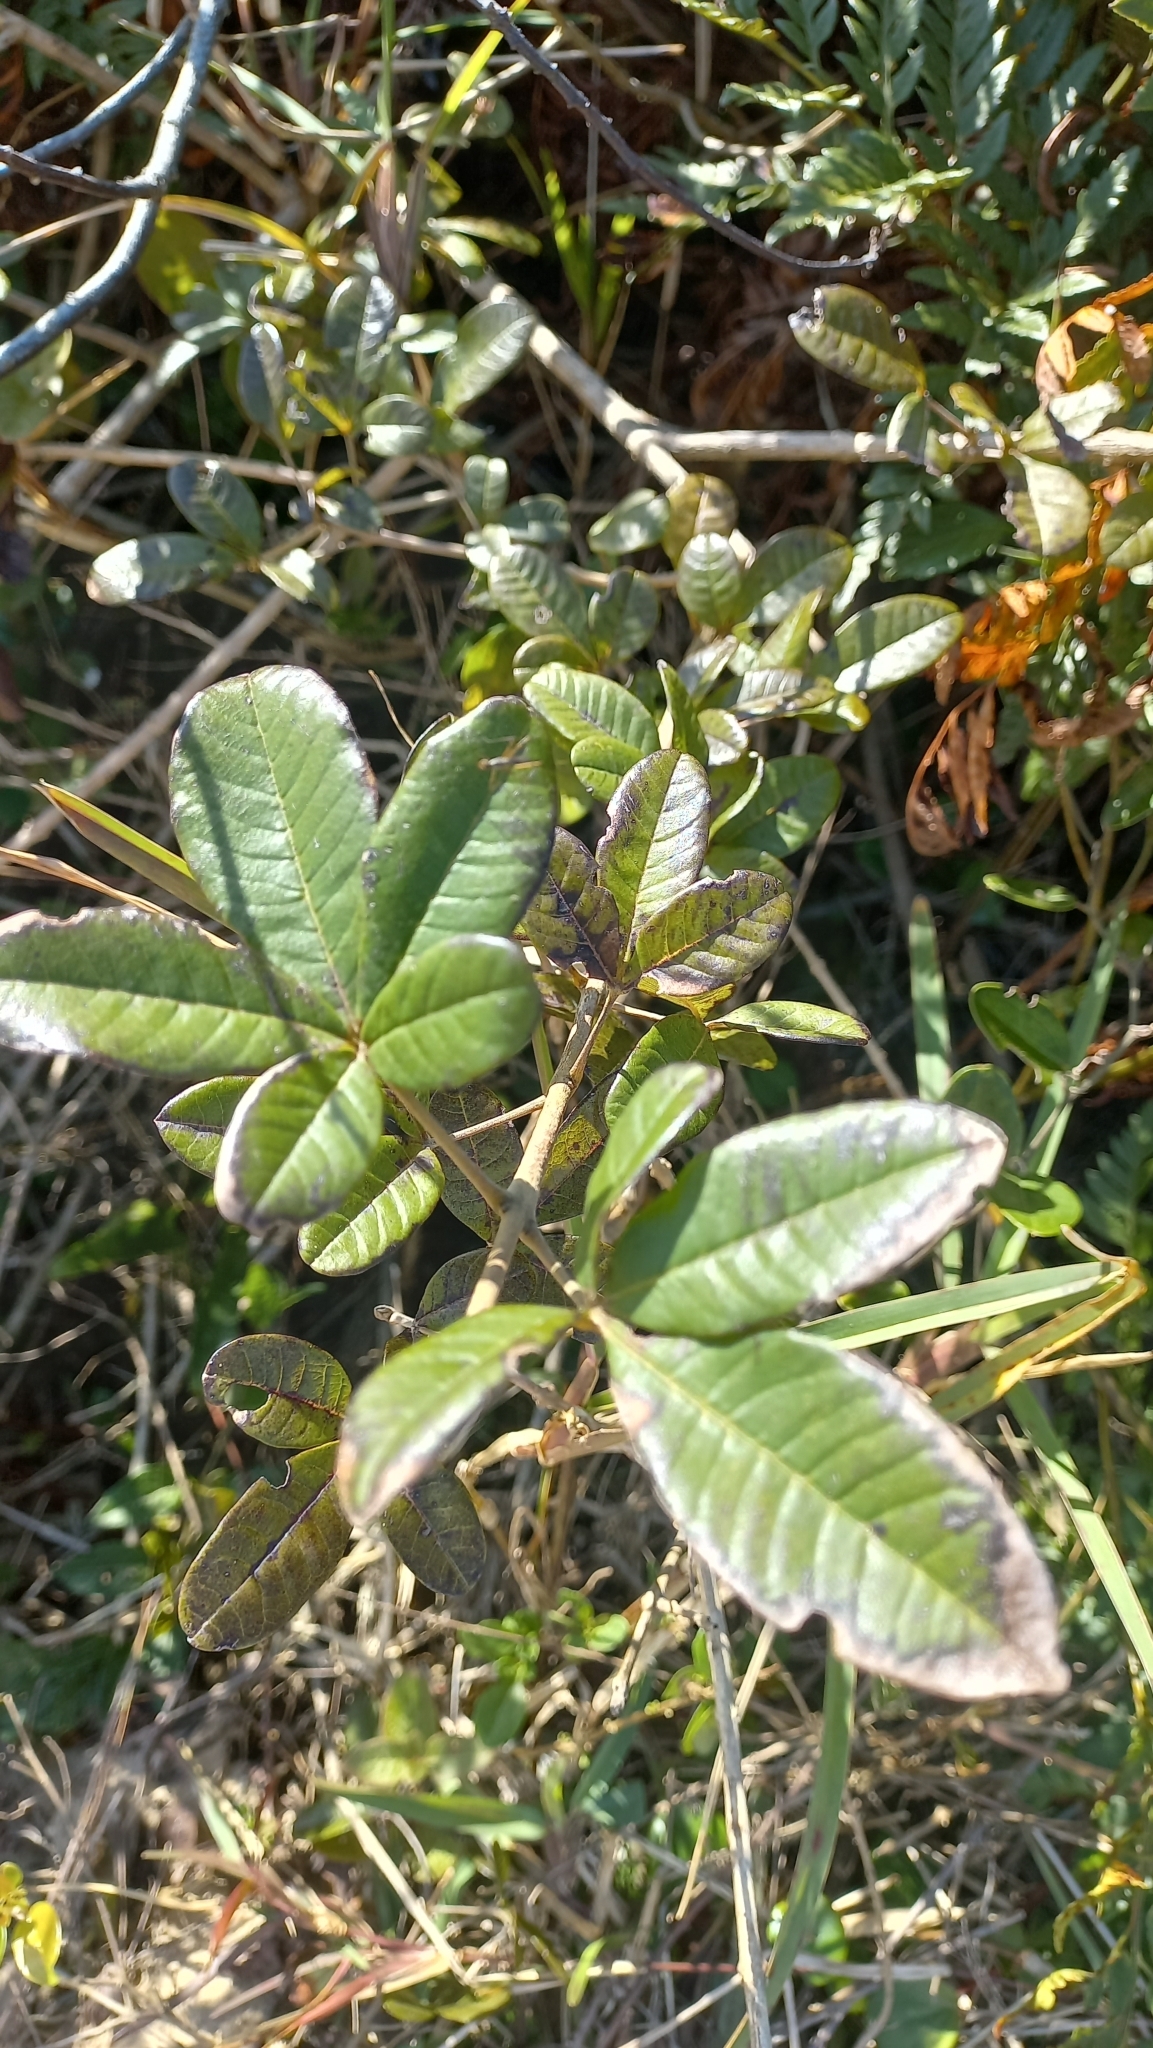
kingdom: Plantae
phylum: Tracheophyta
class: Magnoliopsida
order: Lamiales
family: Lamiaceae
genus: Vitex
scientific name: Vitex megapotamica
